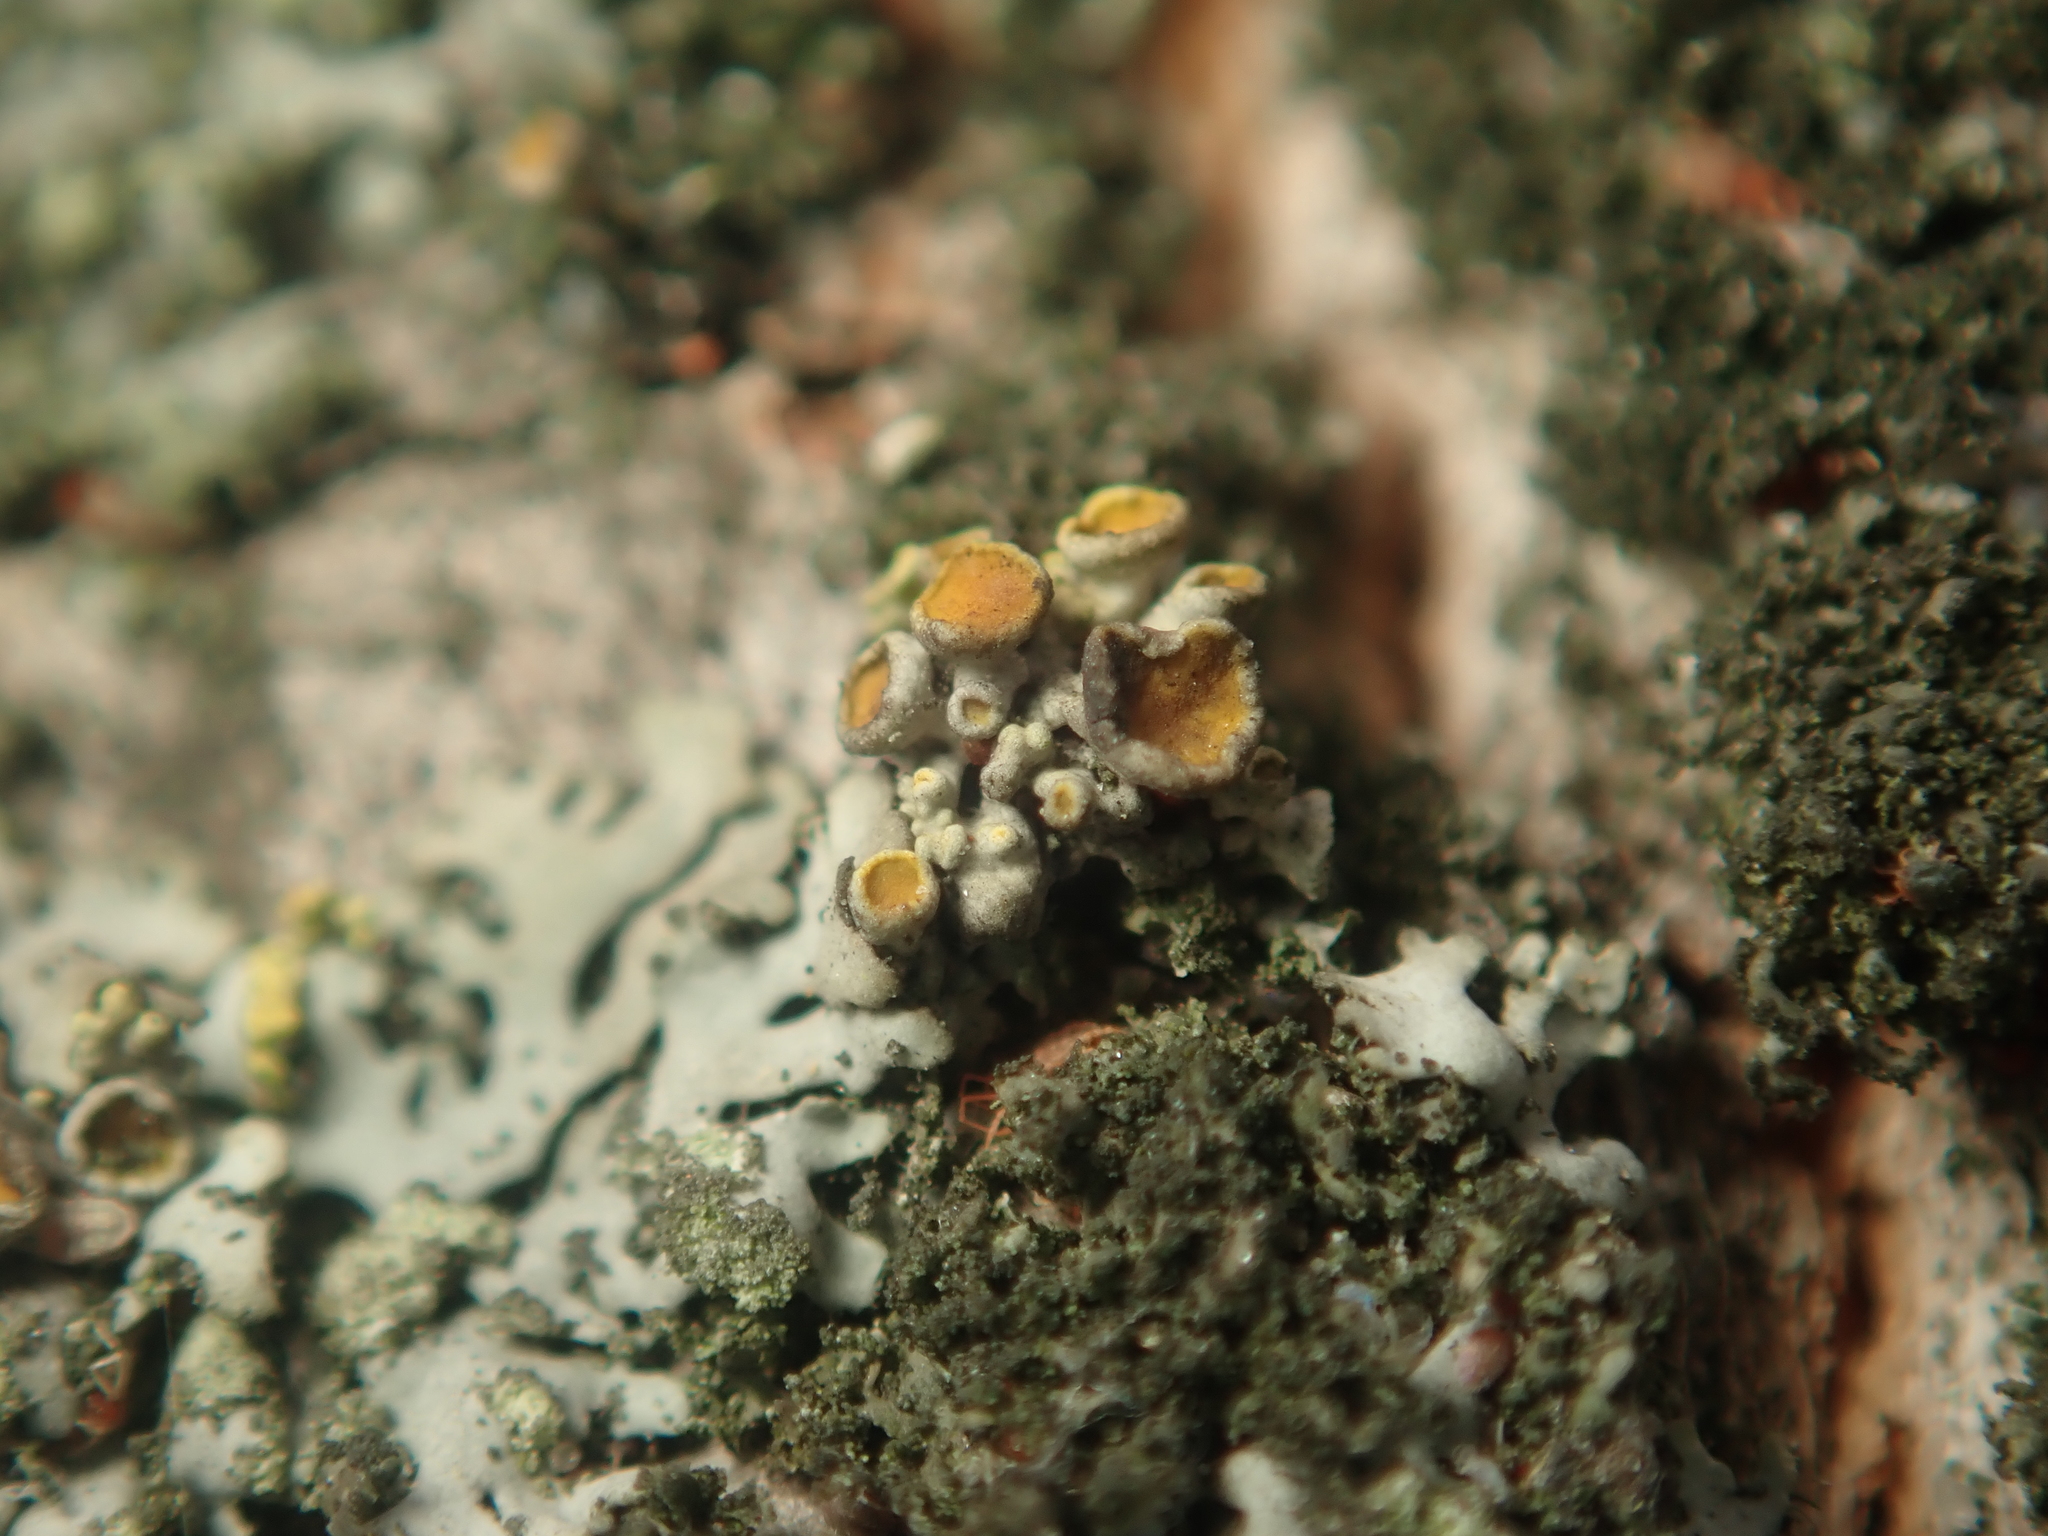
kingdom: Fungi
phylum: Ascomycota
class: Lecanoromycetes
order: Teloschistales
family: Teloschistaceae
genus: Polycauliona
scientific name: Polycauliona polycarpa
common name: Pin-cushion sunburst lichen
